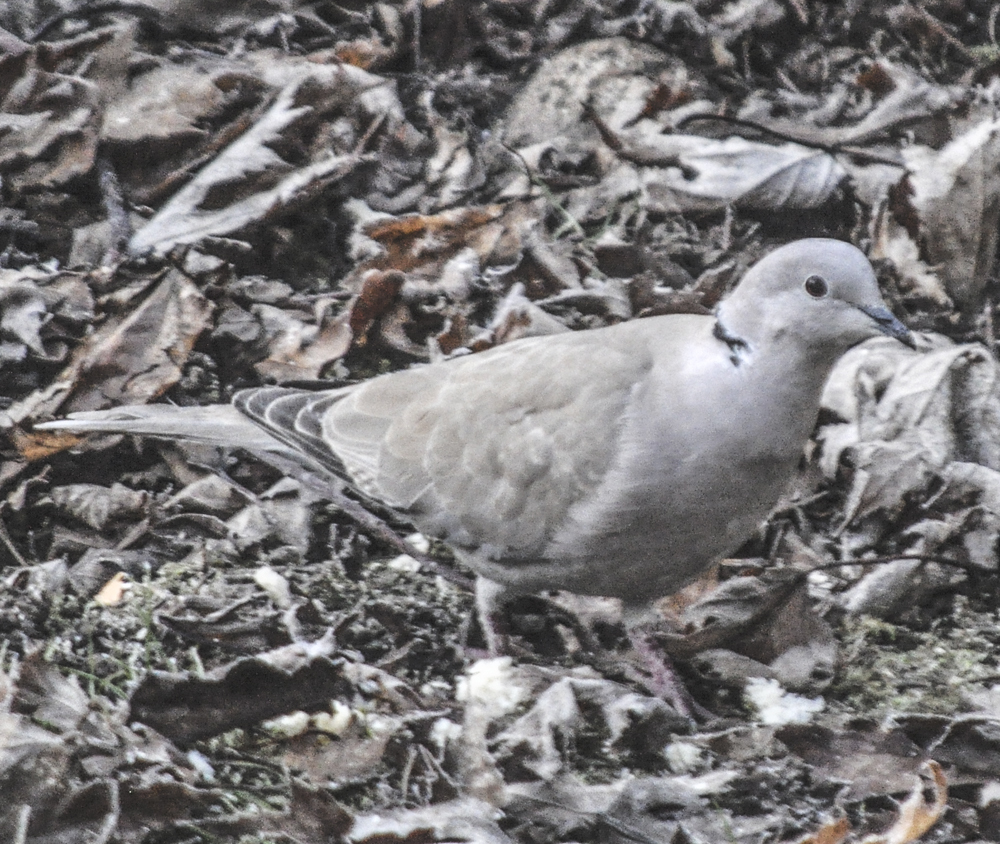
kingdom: Animalia
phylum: Chordata
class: Aves
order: Columbiformes
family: Columbidae
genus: Streptopelia
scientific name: Streptopelia decaocto
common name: Eurasian collared dove
